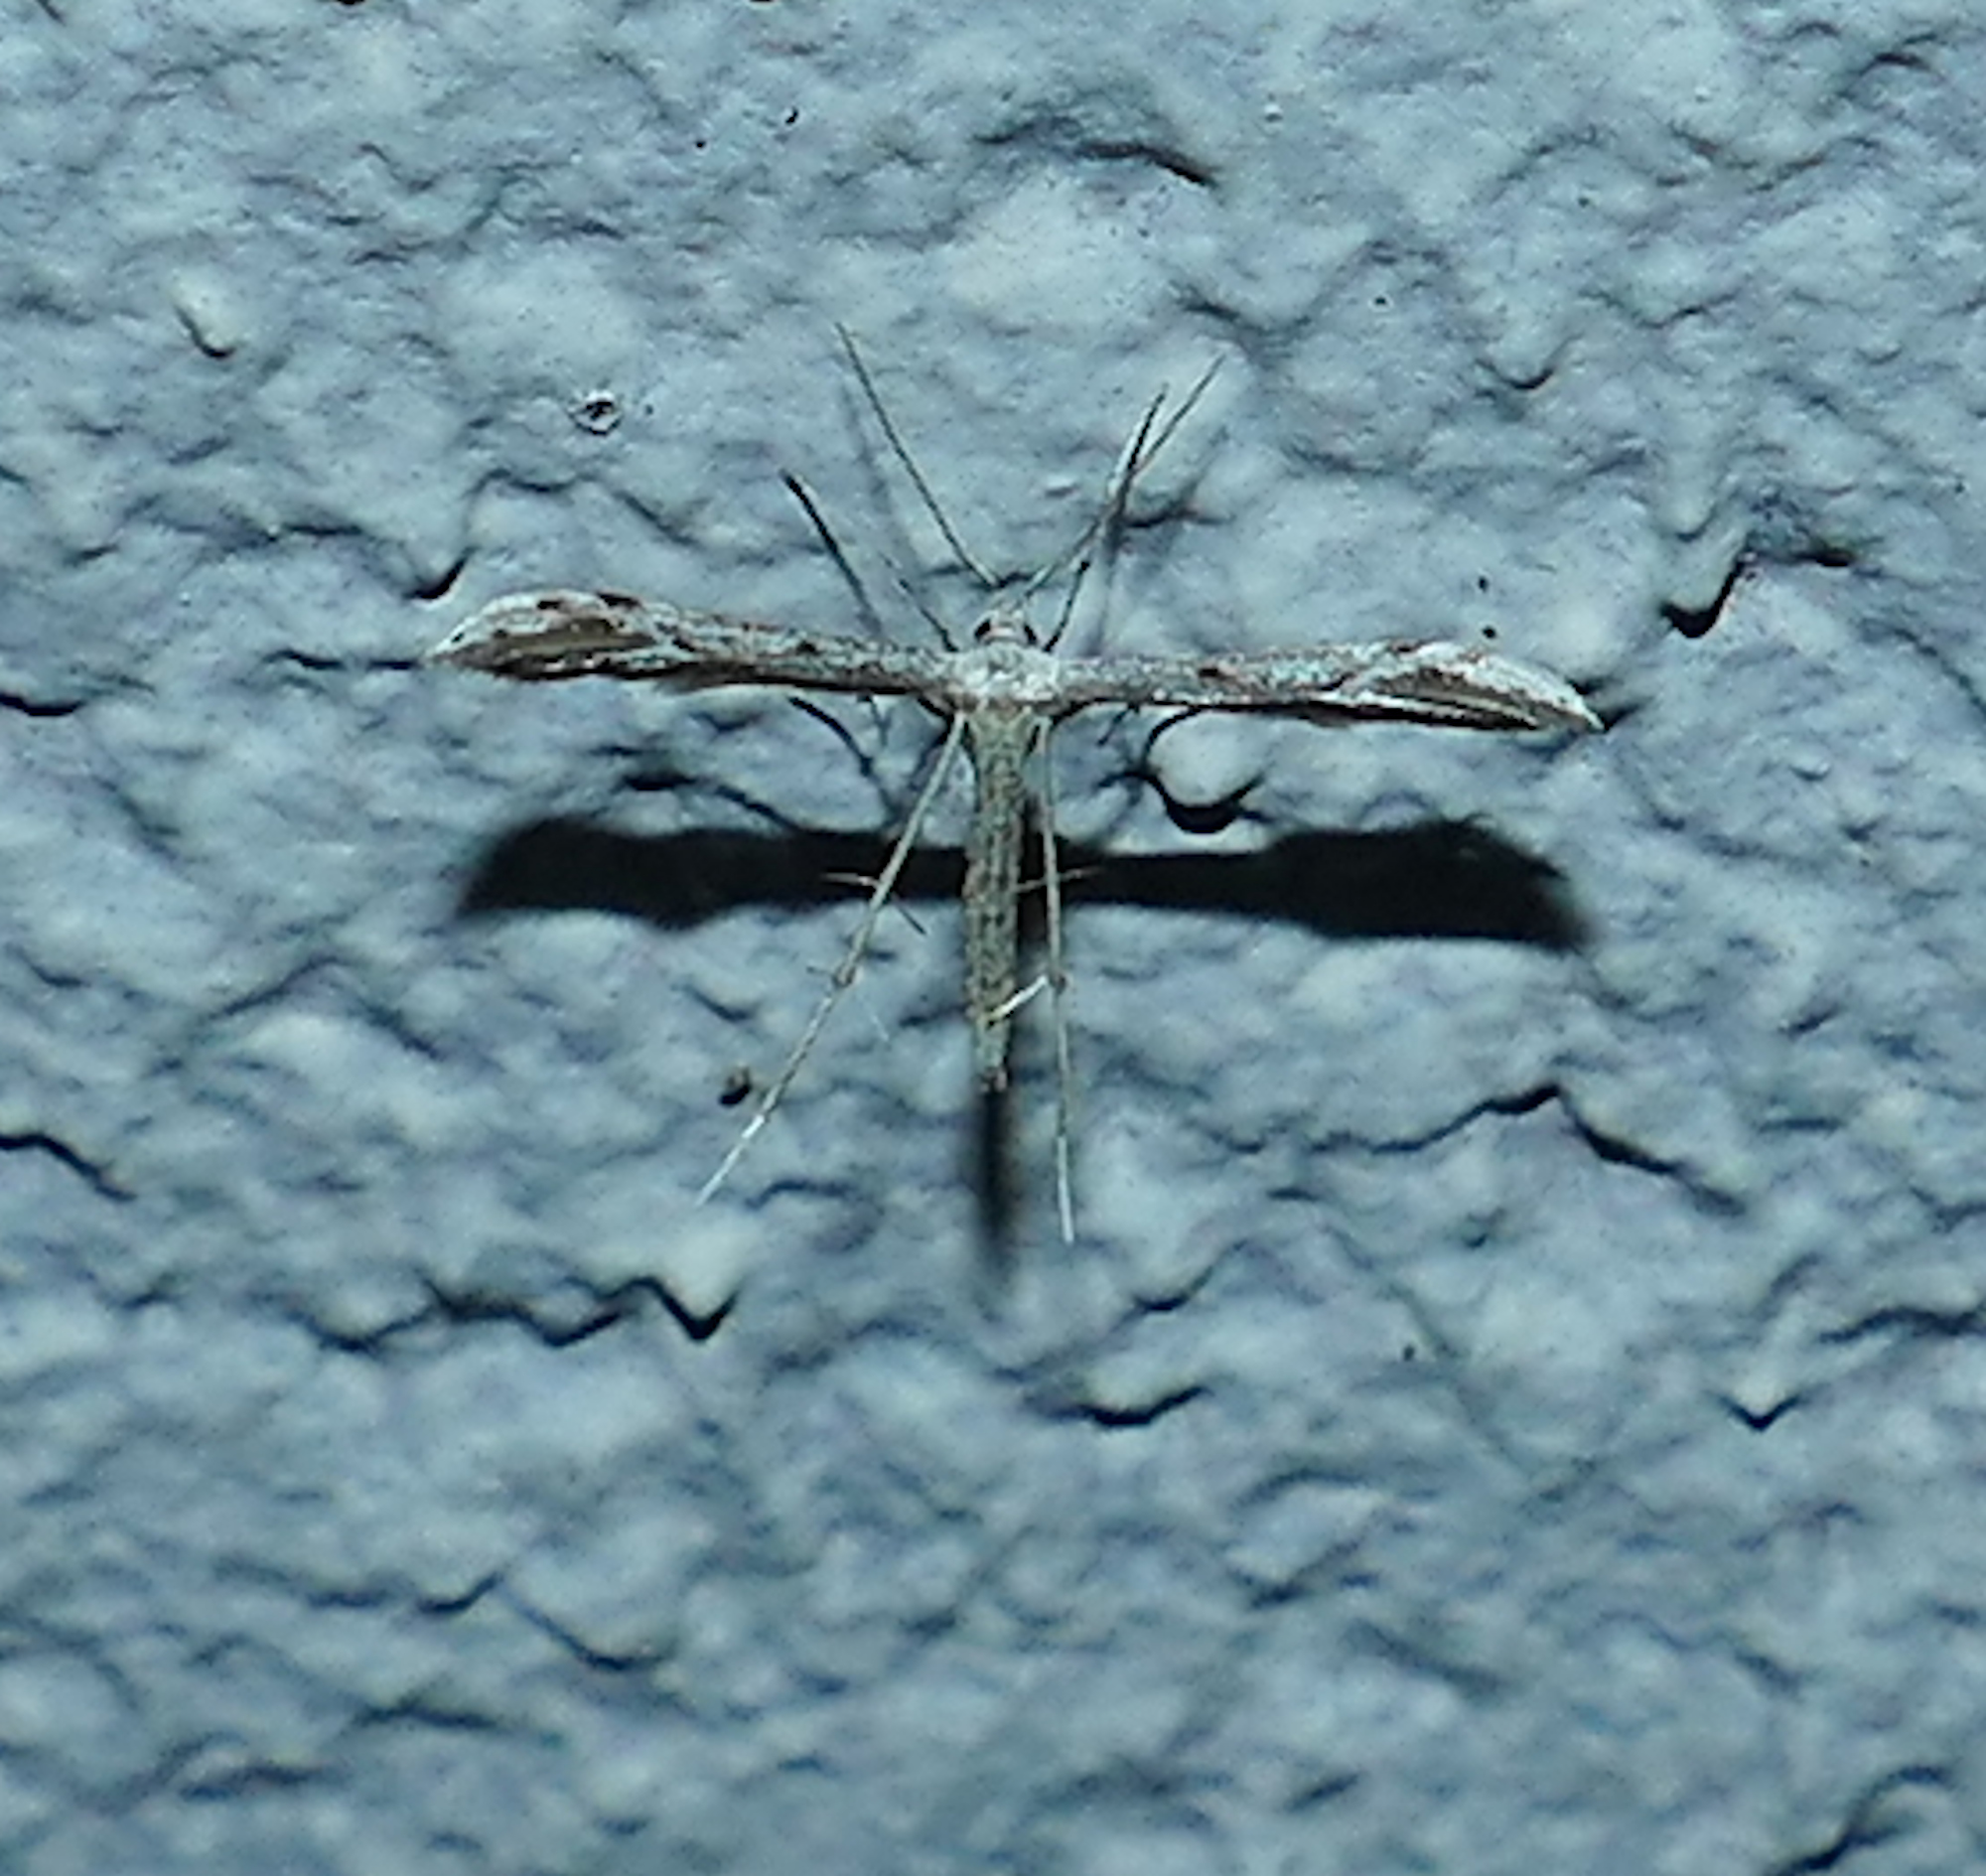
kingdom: Animalia
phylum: Arthropoda
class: Insecta
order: Lepidoptera
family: Pterophoridae
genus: Pselnophorus
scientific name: Pselnophorus belfragei
